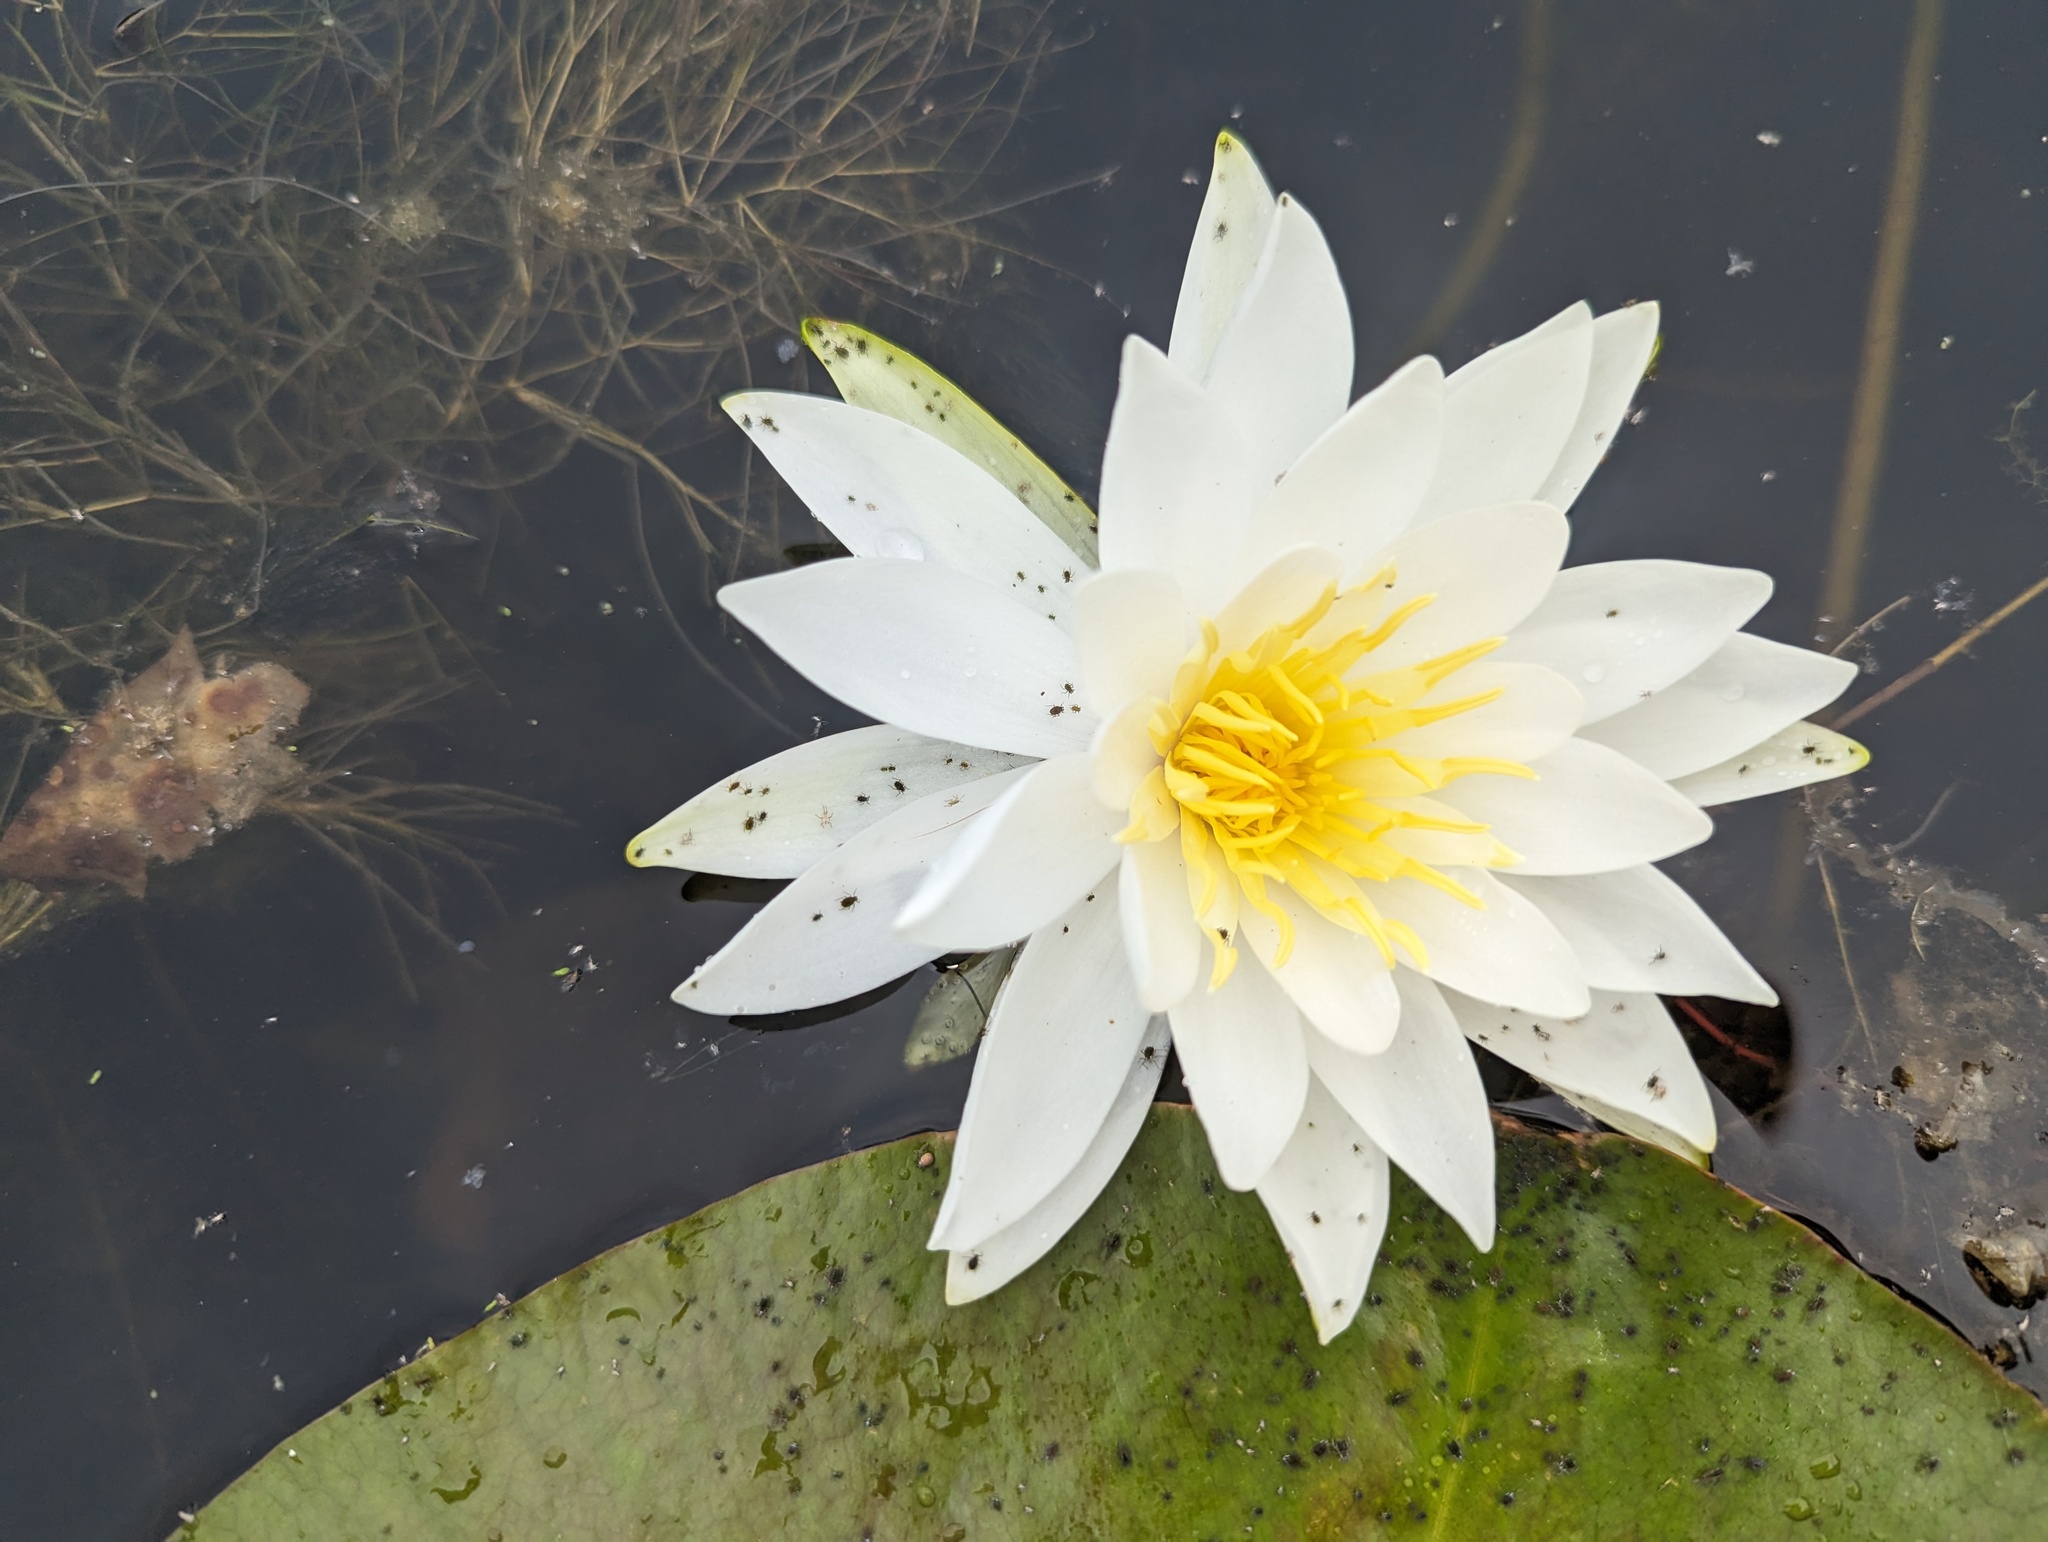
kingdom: Plantae
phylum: Tracheophyta
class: Magnoliopsida
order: Nymphaeales
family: Nymphaeaceae
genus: Nymphaea
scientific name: Nymphaea odorata
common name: Fragrant water-lily
